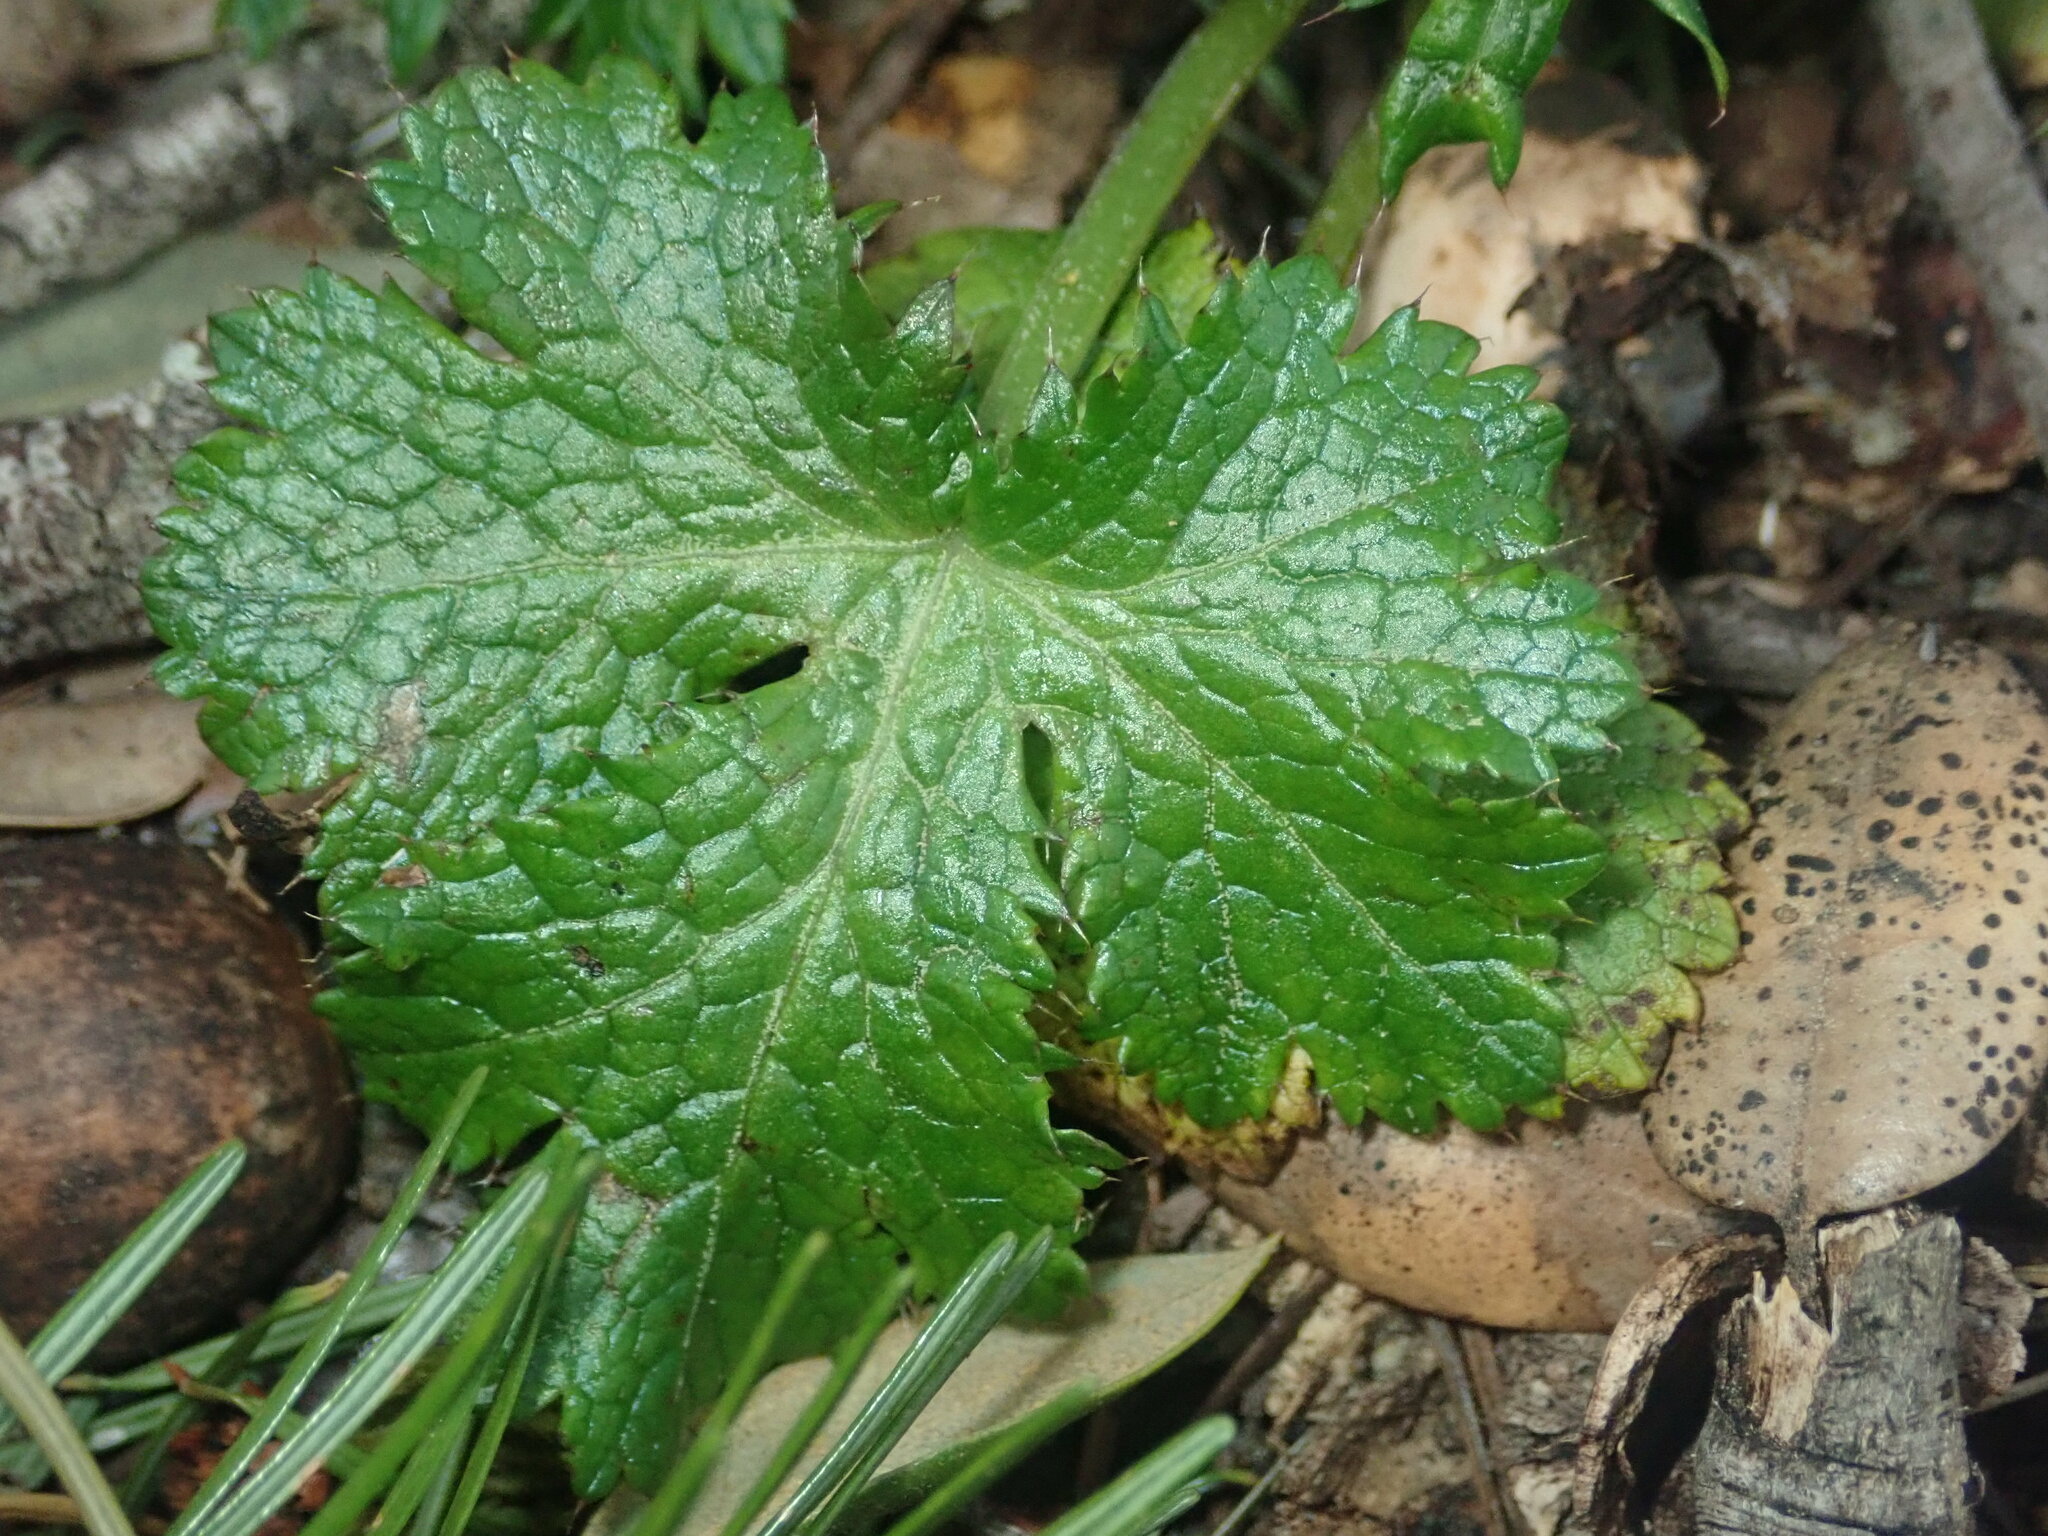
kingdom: Plantae
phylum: Tracheophyta
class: Magnoliopsida
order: Apiales
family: Apiaceae
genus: Sanicula
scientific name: Sanicula crassicaulis
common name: Western snakeroot
